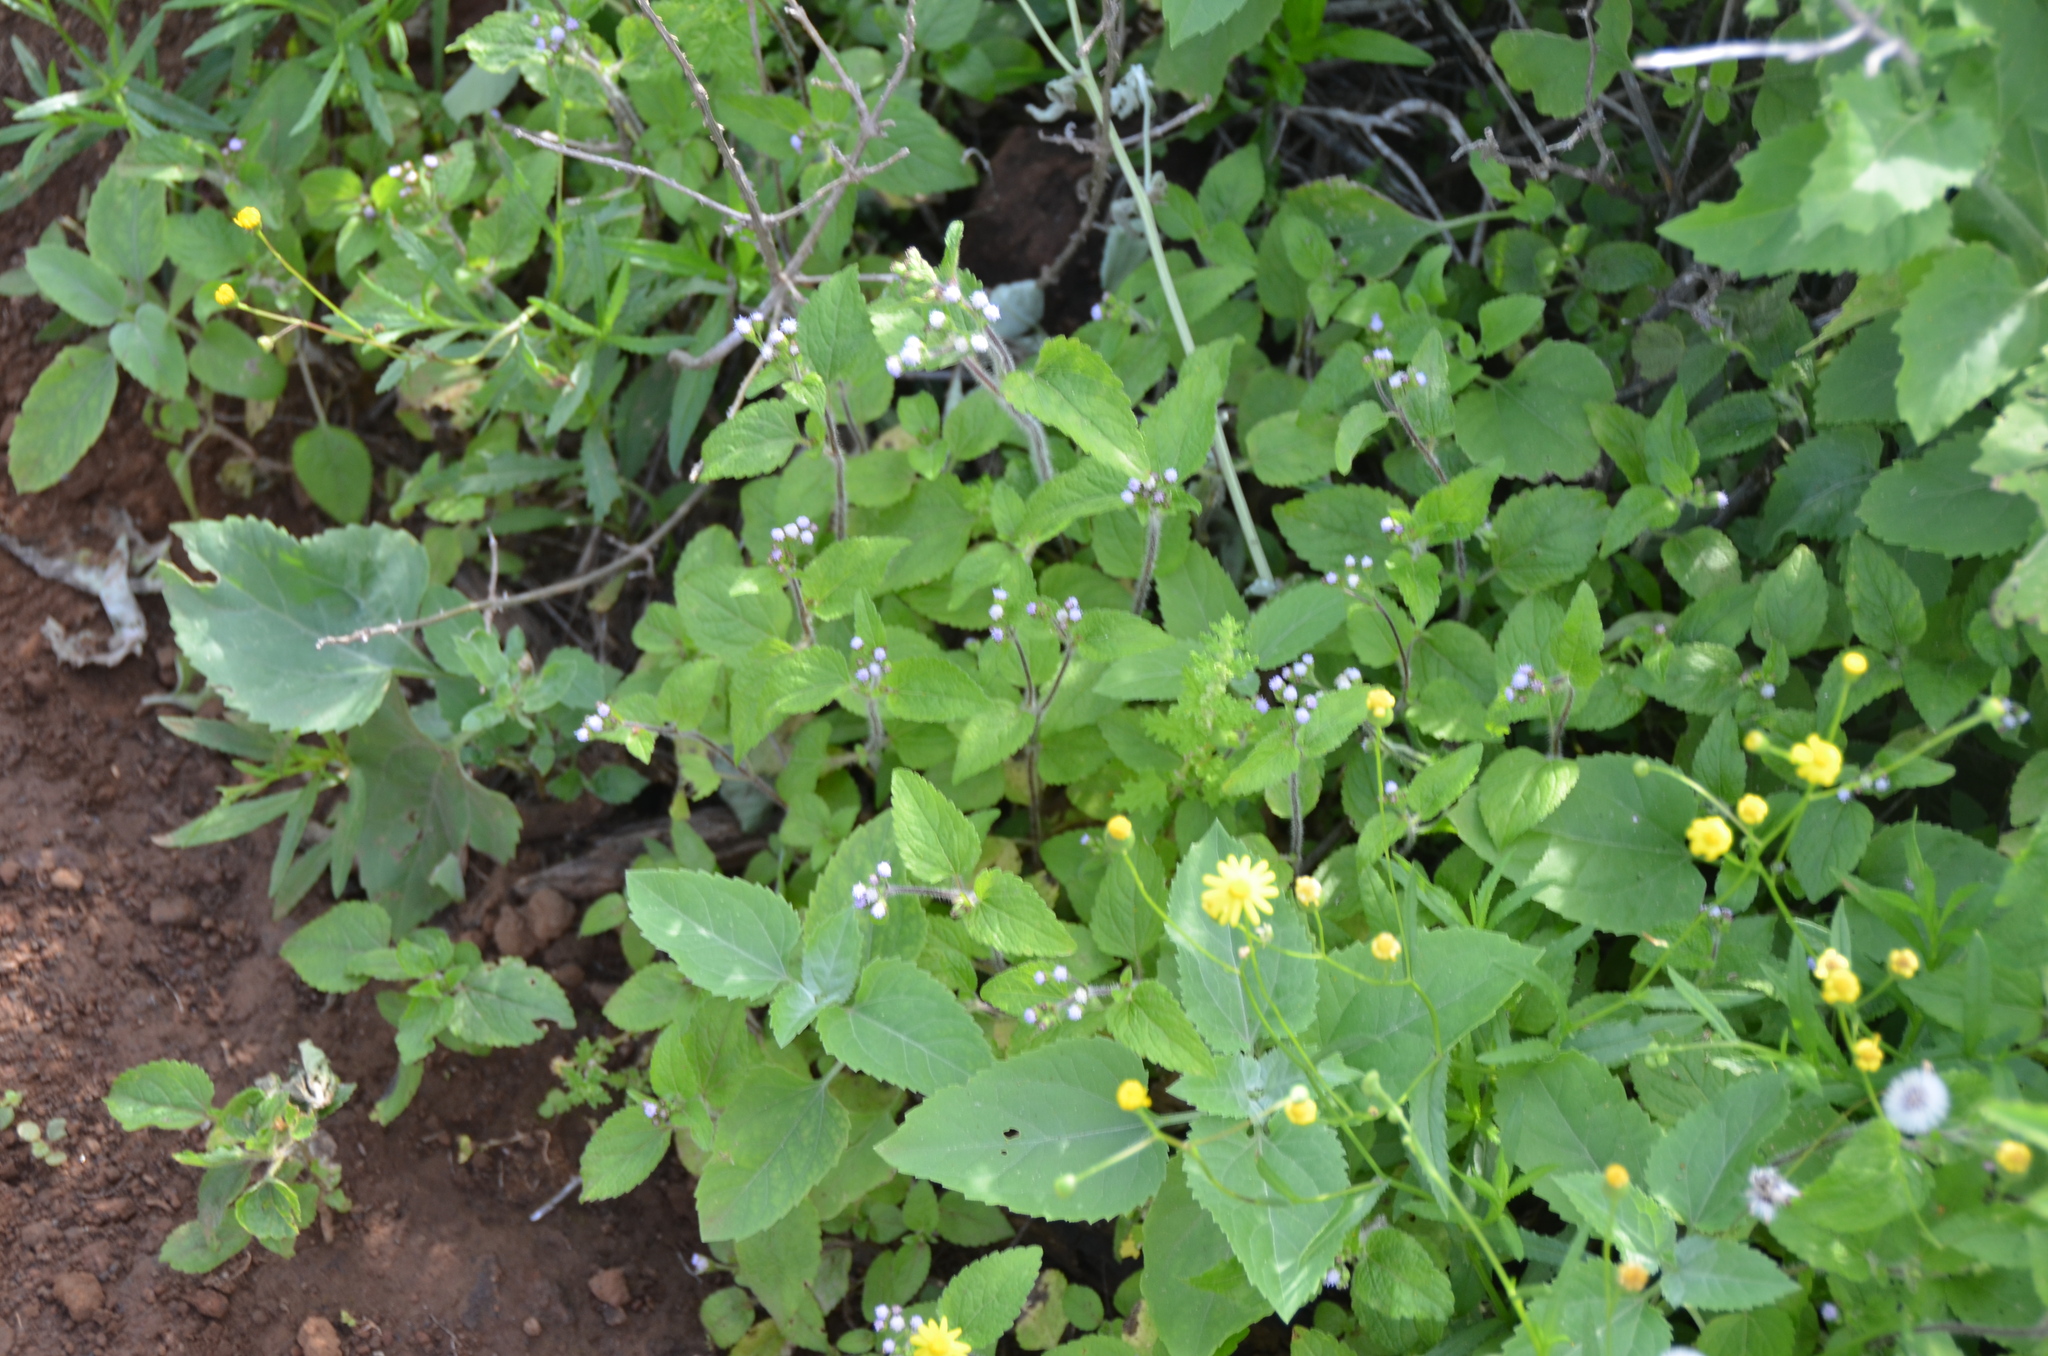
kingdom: Plantae
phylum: Tracheophyta
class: Magnoliopsida
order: Asterales
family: Asteraceae
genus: Ageratum
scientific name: Ageratum conyzoides
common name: Tropical whiteweed
